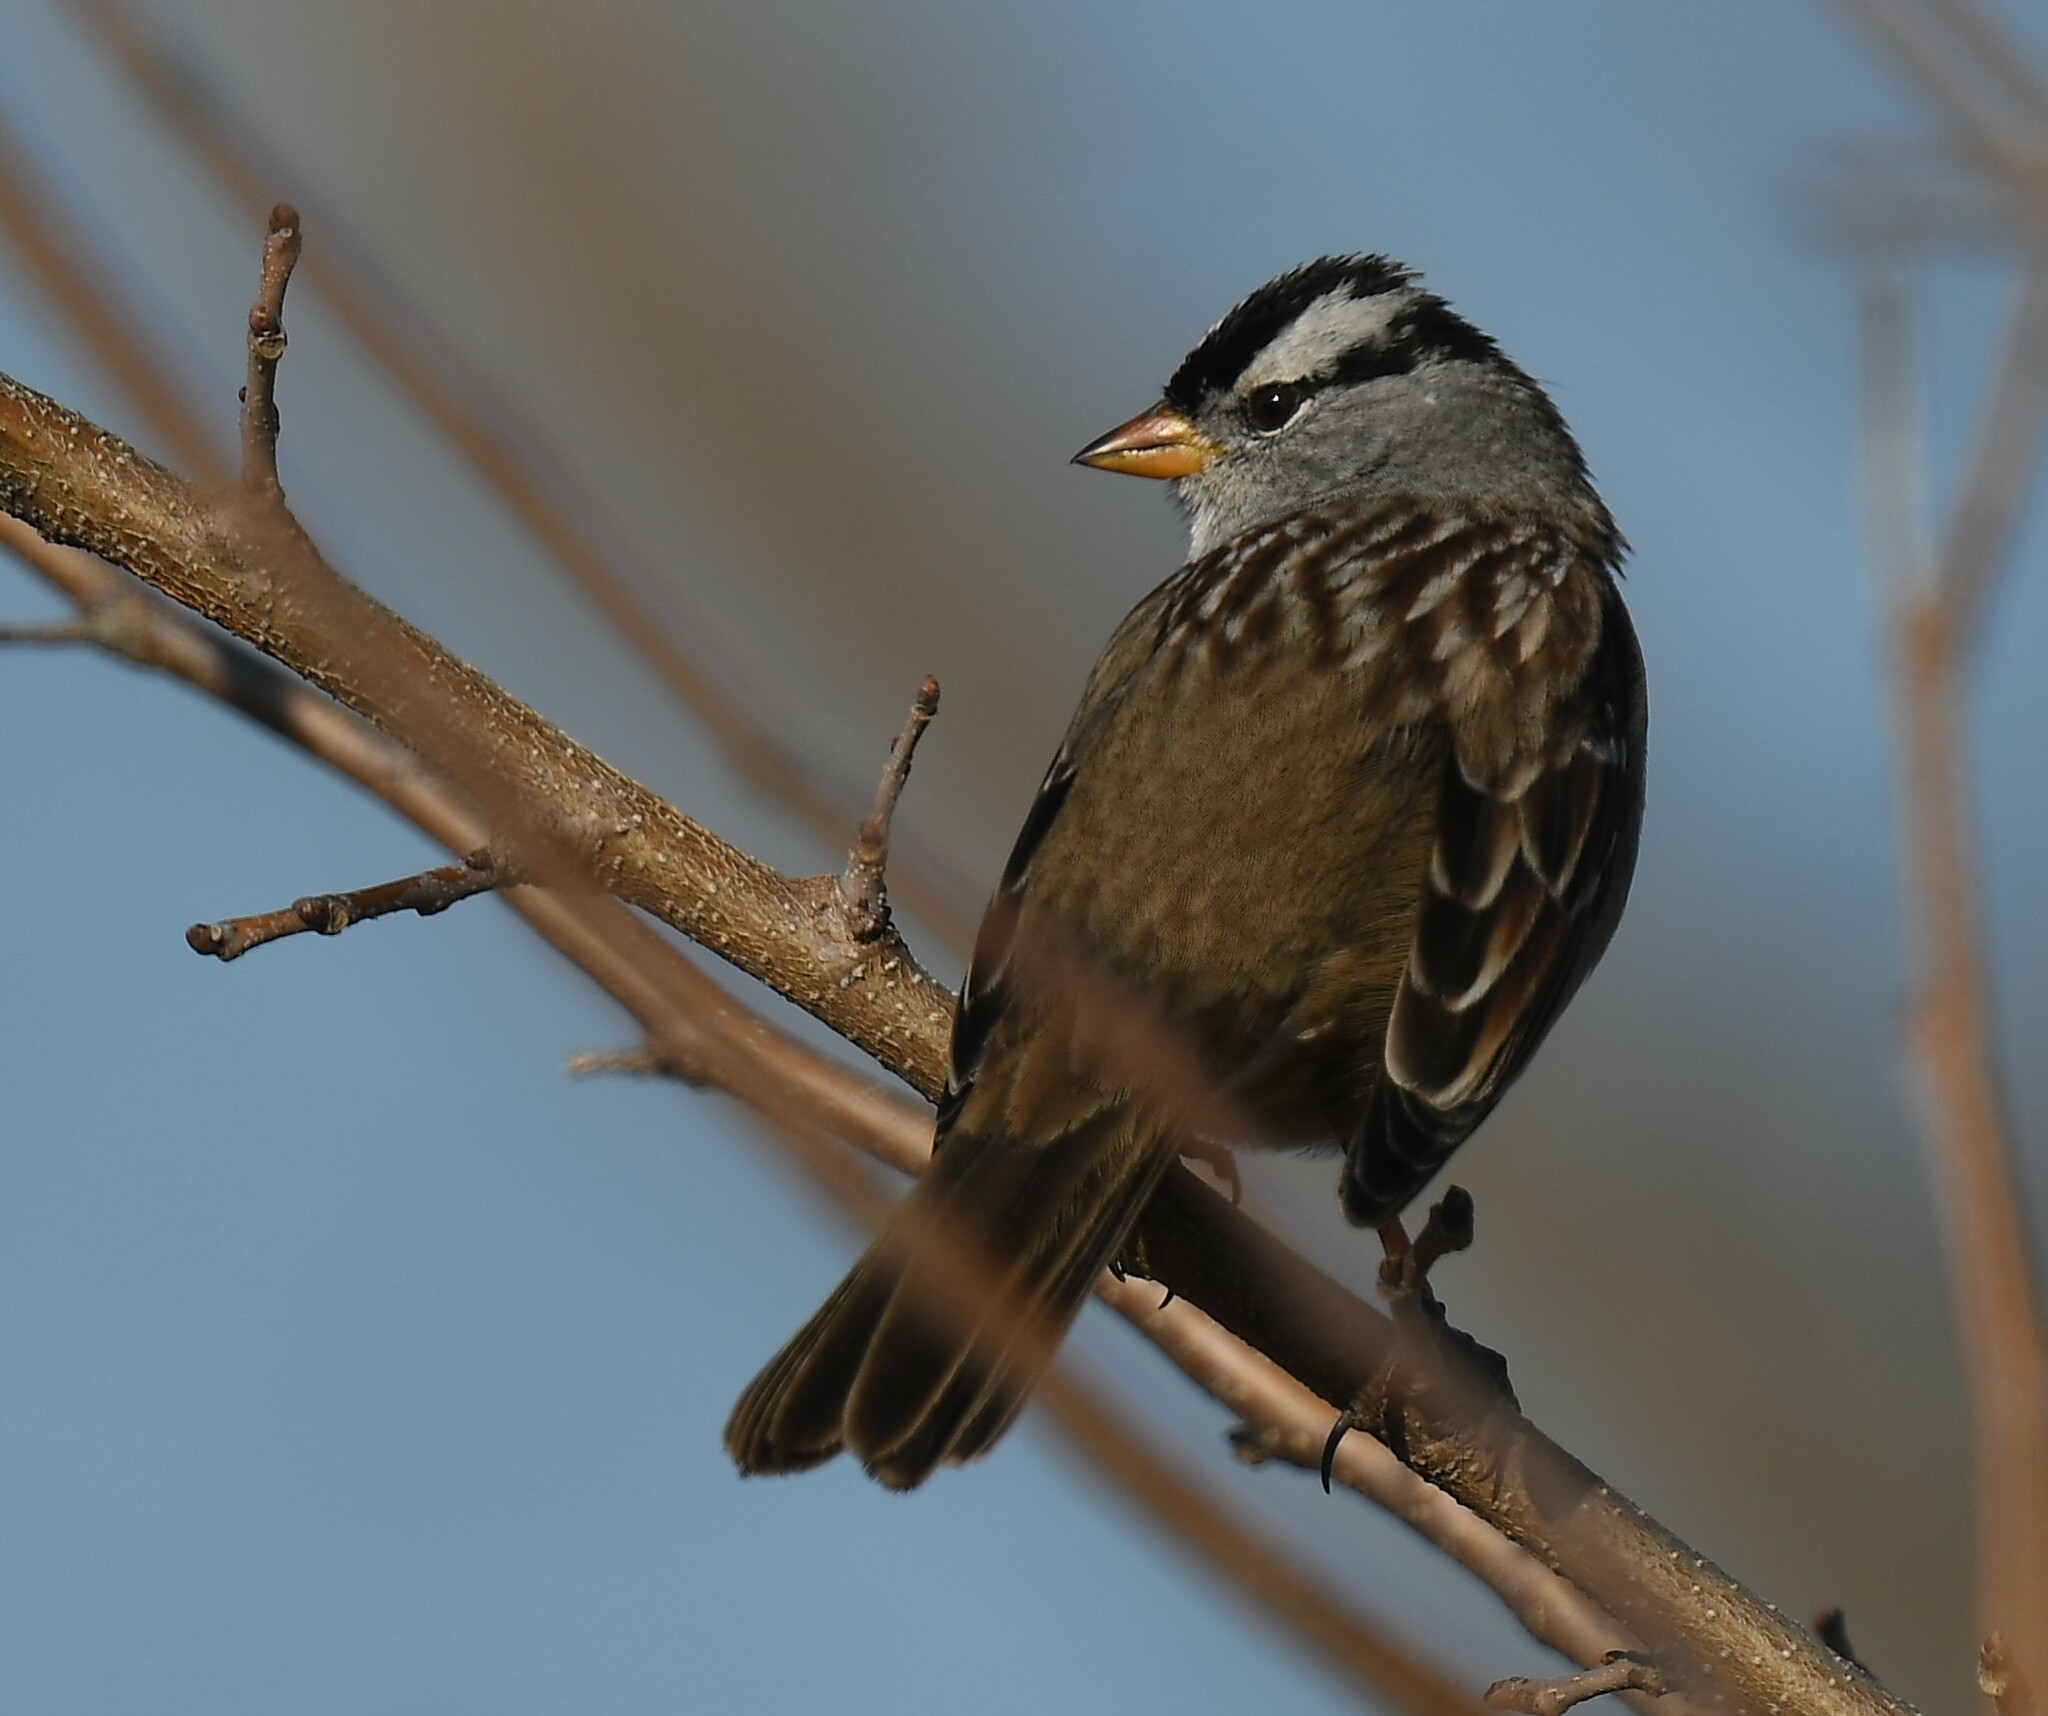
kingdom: Animalia
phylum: Chordata
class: Aves
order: Passeriformes
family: Passerellidae
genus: Zonotrichia
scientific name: Zonotrichia leucophrys
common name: White-crowned sparrow
